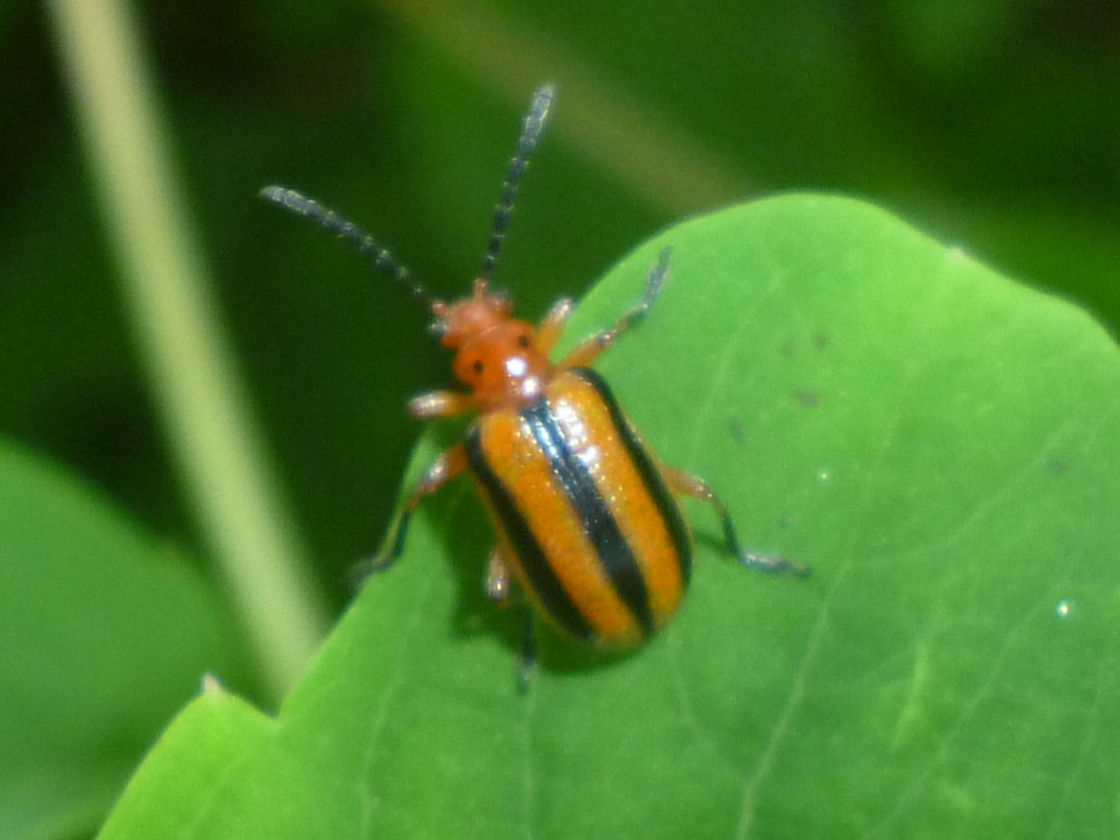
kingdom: Animalia
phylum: Arthropoda
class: Insecta
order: Coleoptera
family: Chrysomelidae
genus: Lema
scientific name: Lema daturaphila
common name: Leaf beetle
